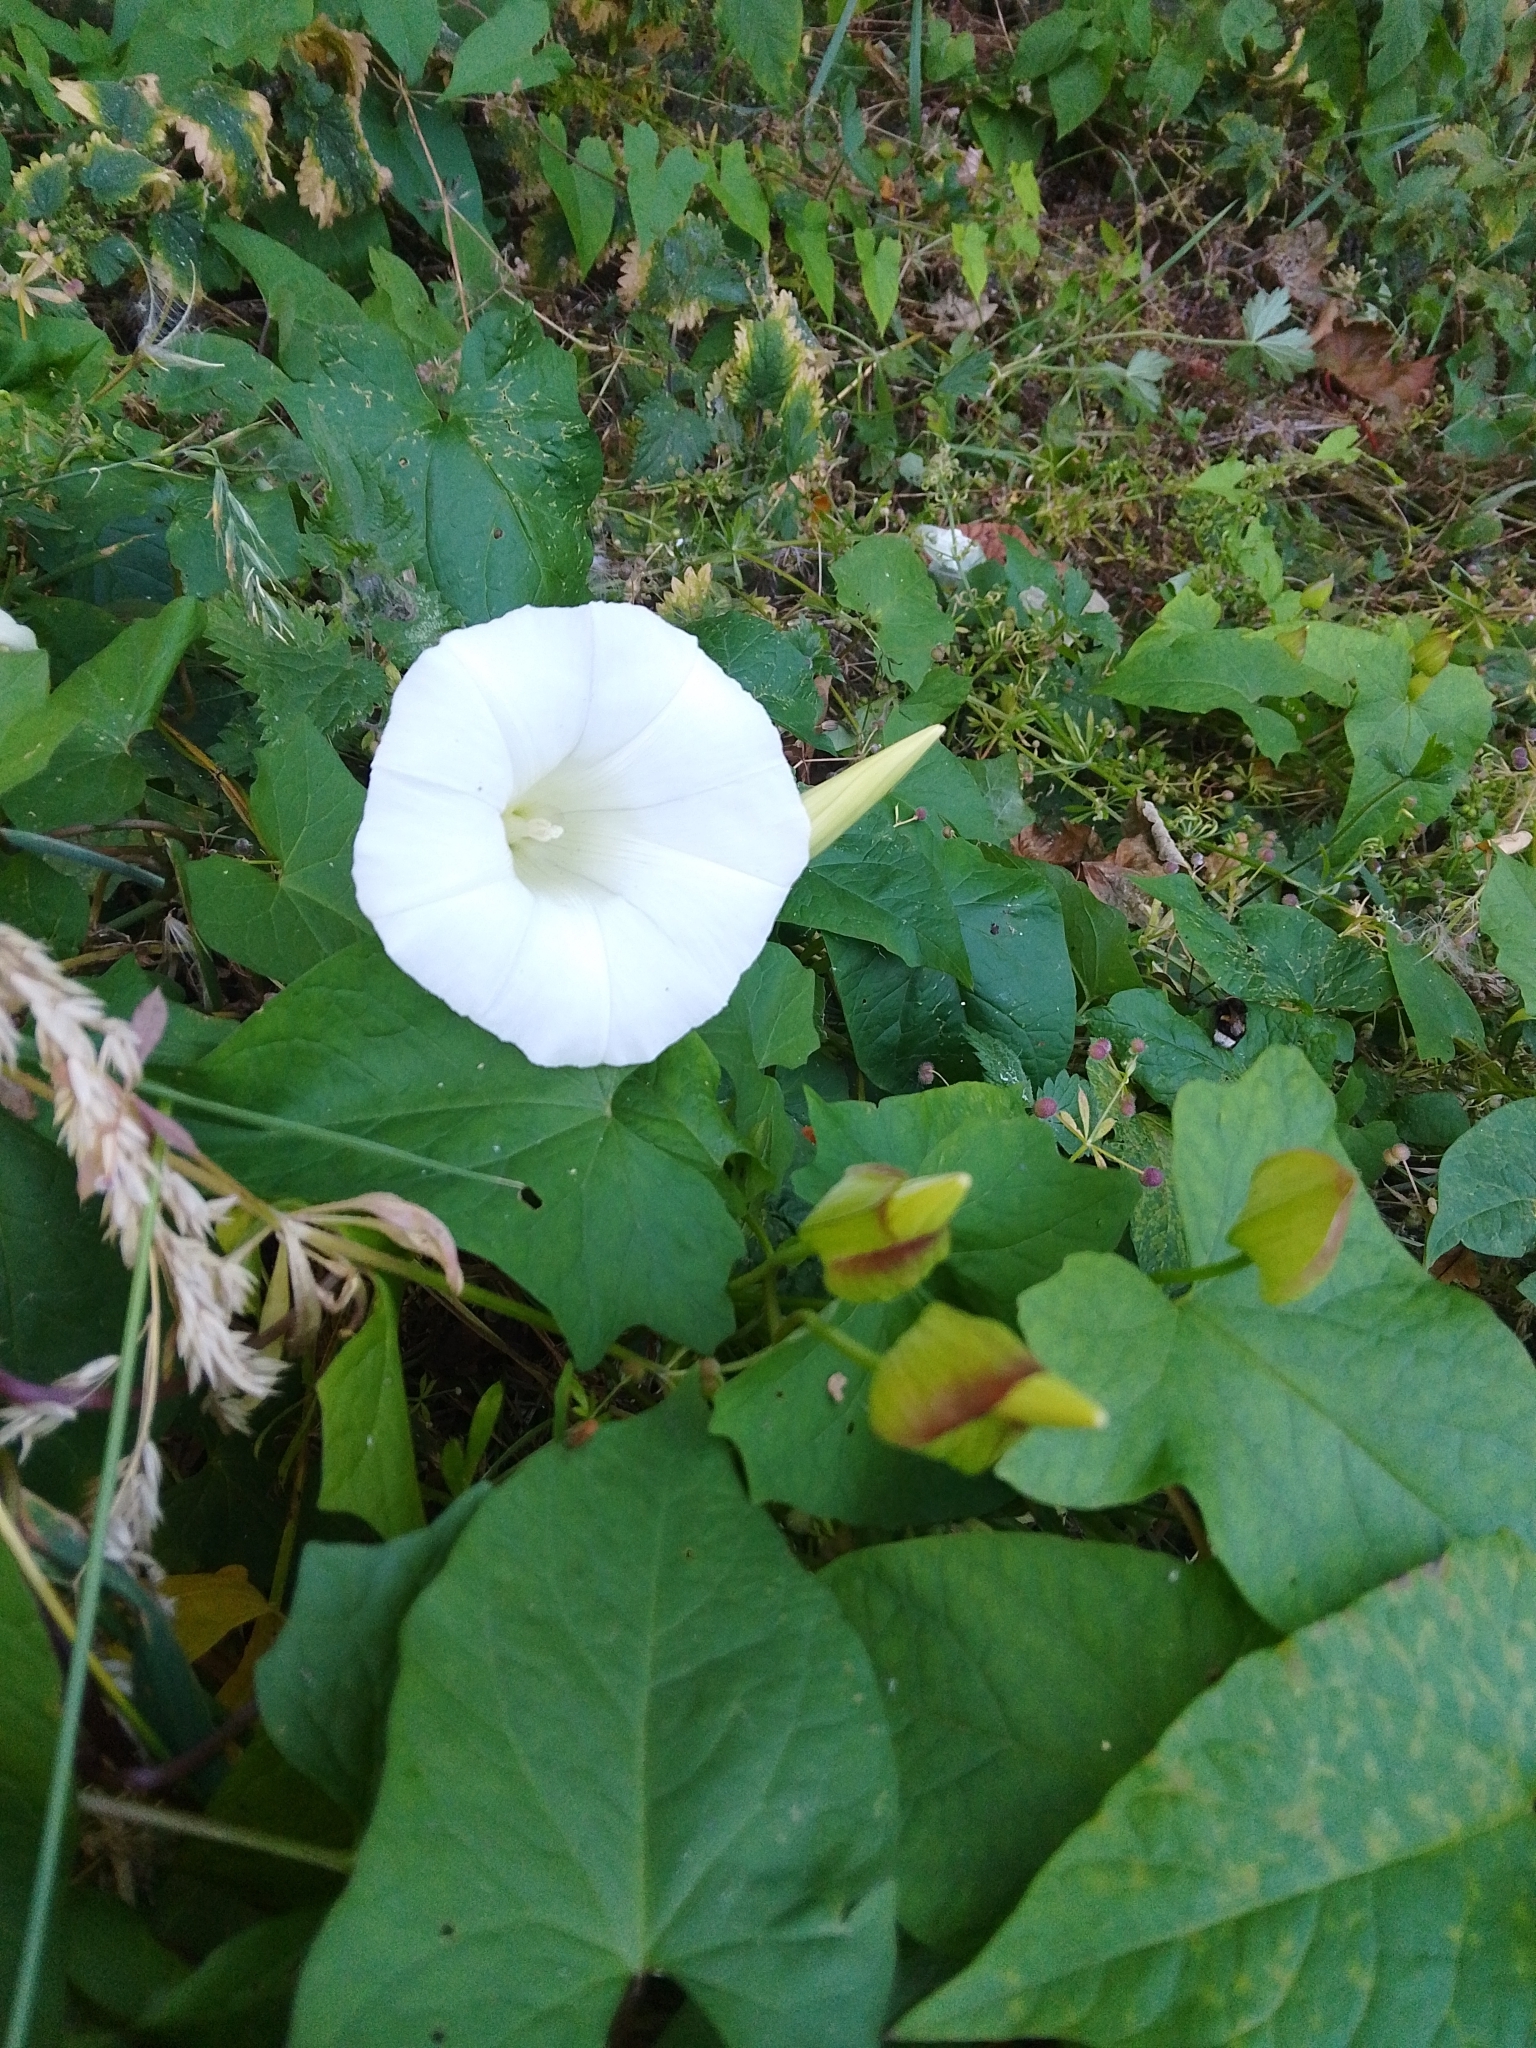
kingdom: Plantae
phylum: Tracheophyta
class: Magnoliopsida
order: Solanales
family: Convolvulaceae
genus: Calystegia
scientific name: Calystegia silvatica
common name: Large bindweed
